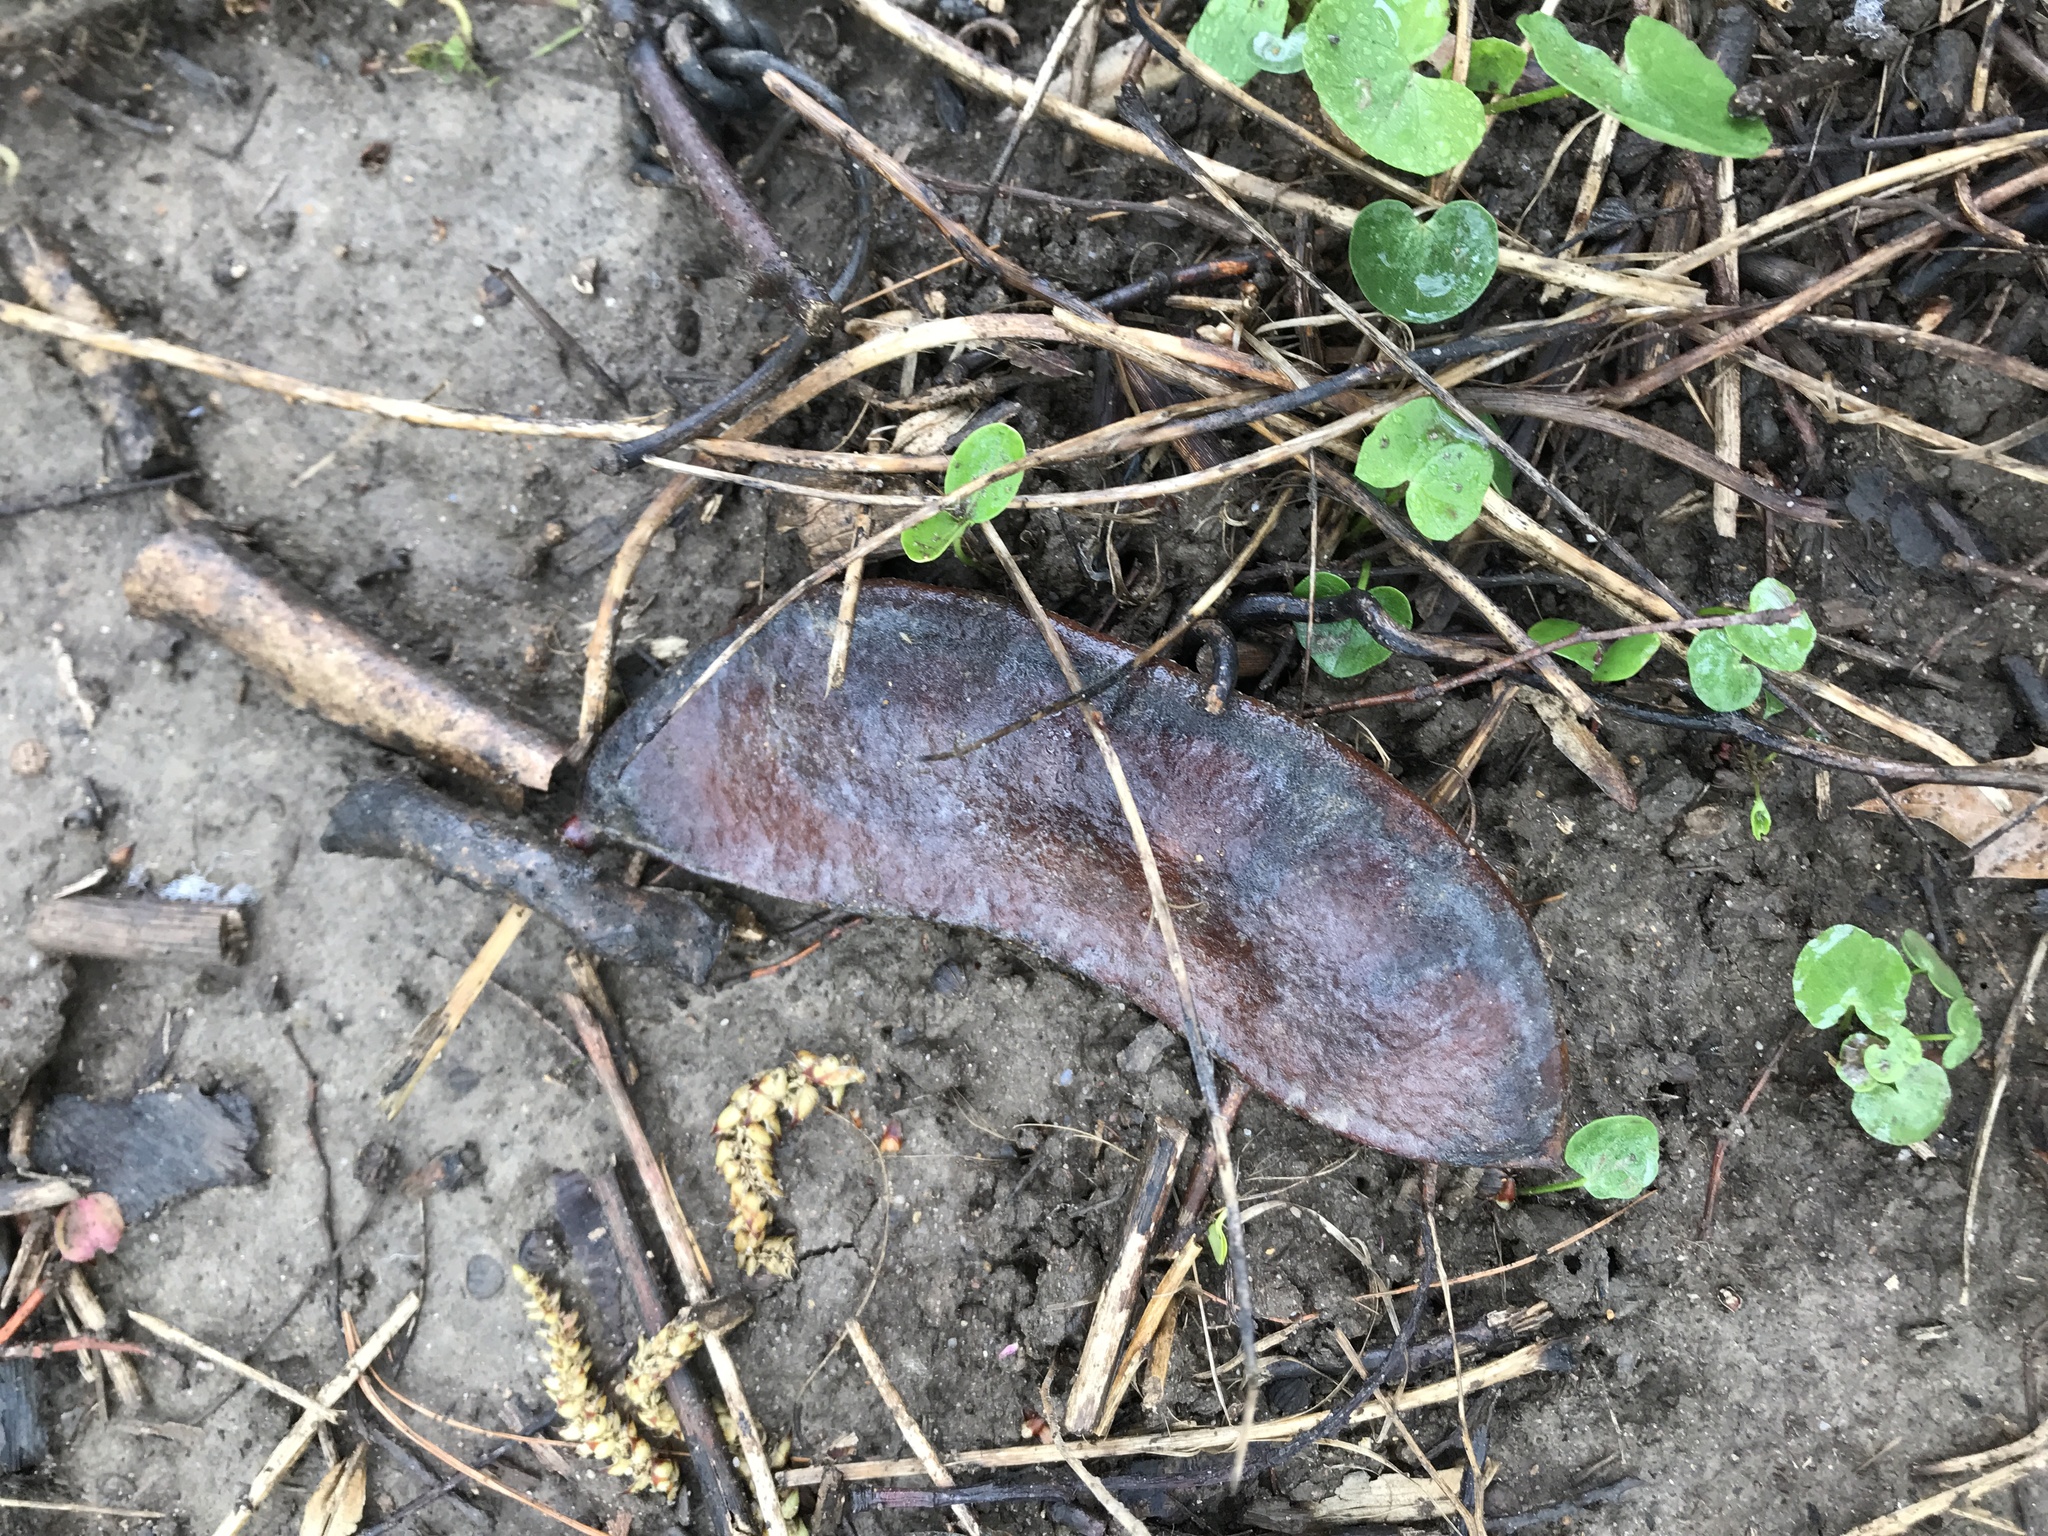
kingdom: Plantae
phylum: Tracheophyta
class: Magnoliopsida
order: Fabales
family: Fabaceae
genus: Gymnocladus
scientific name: Gymnocladus dioicus
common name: Kentucky coffee-tree
